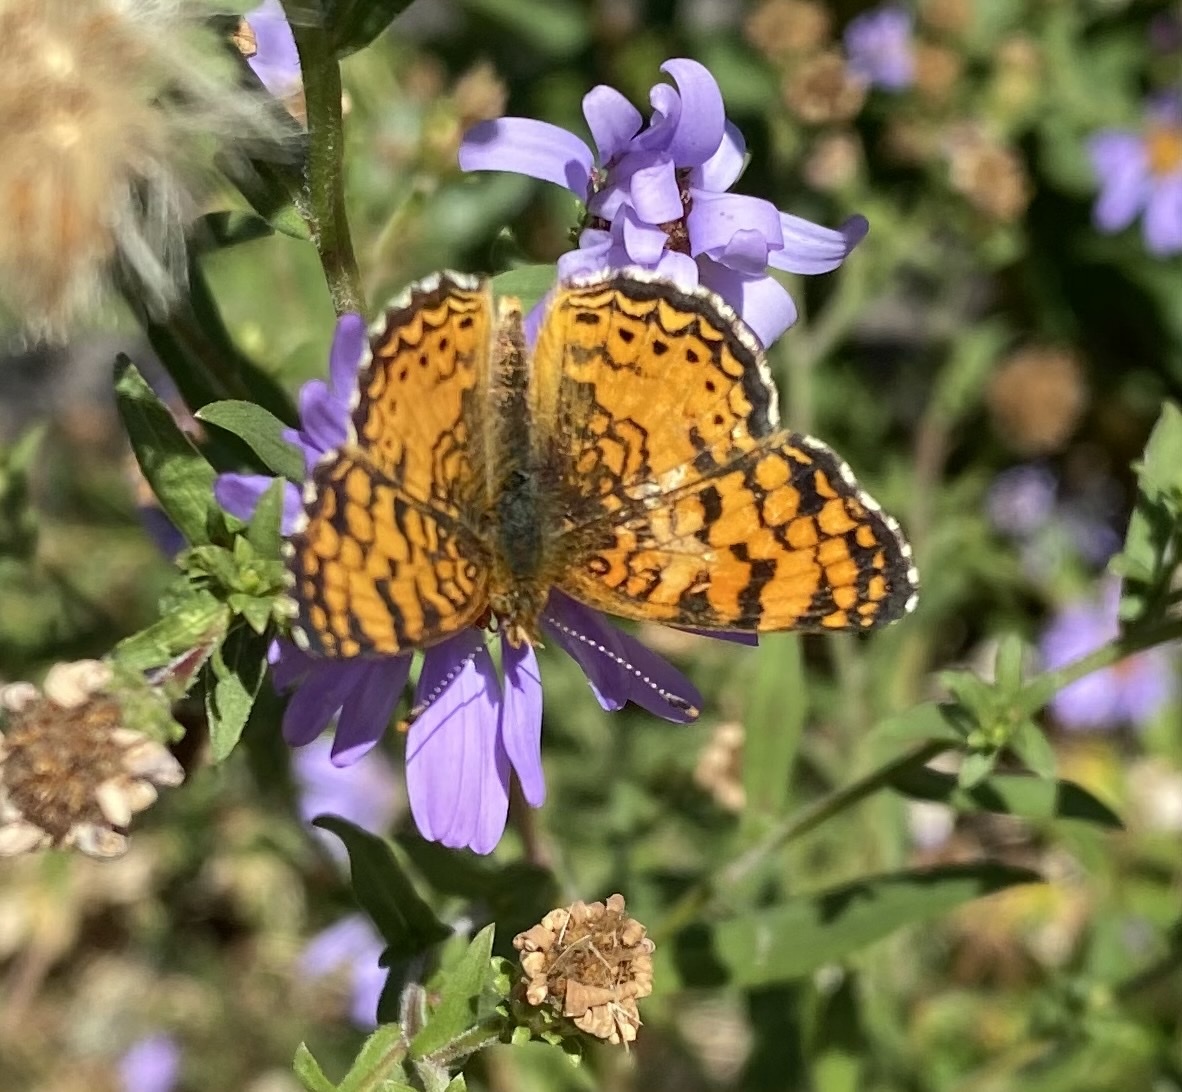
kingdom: Animalia
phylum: Arthropoda
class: Insecta
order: Lepidoptera
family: Nymphalidae
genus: Eresia
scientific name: Eresia aveyrona
